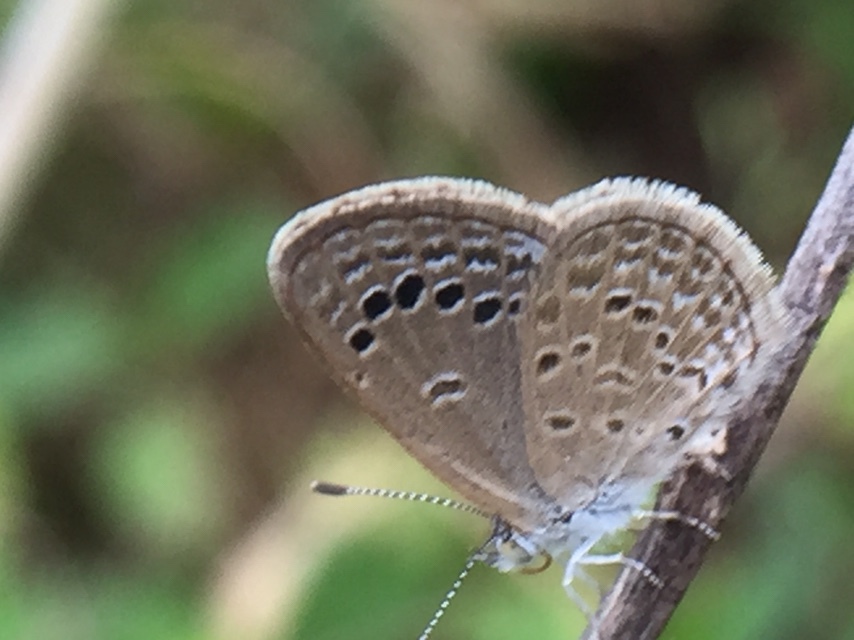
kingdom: Animalia
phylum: Arthropoda
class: Insecta
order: Lepidoptera
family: Lycaenidae
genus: Zizina
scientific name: Zizina otis
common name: Lesser grass blue
